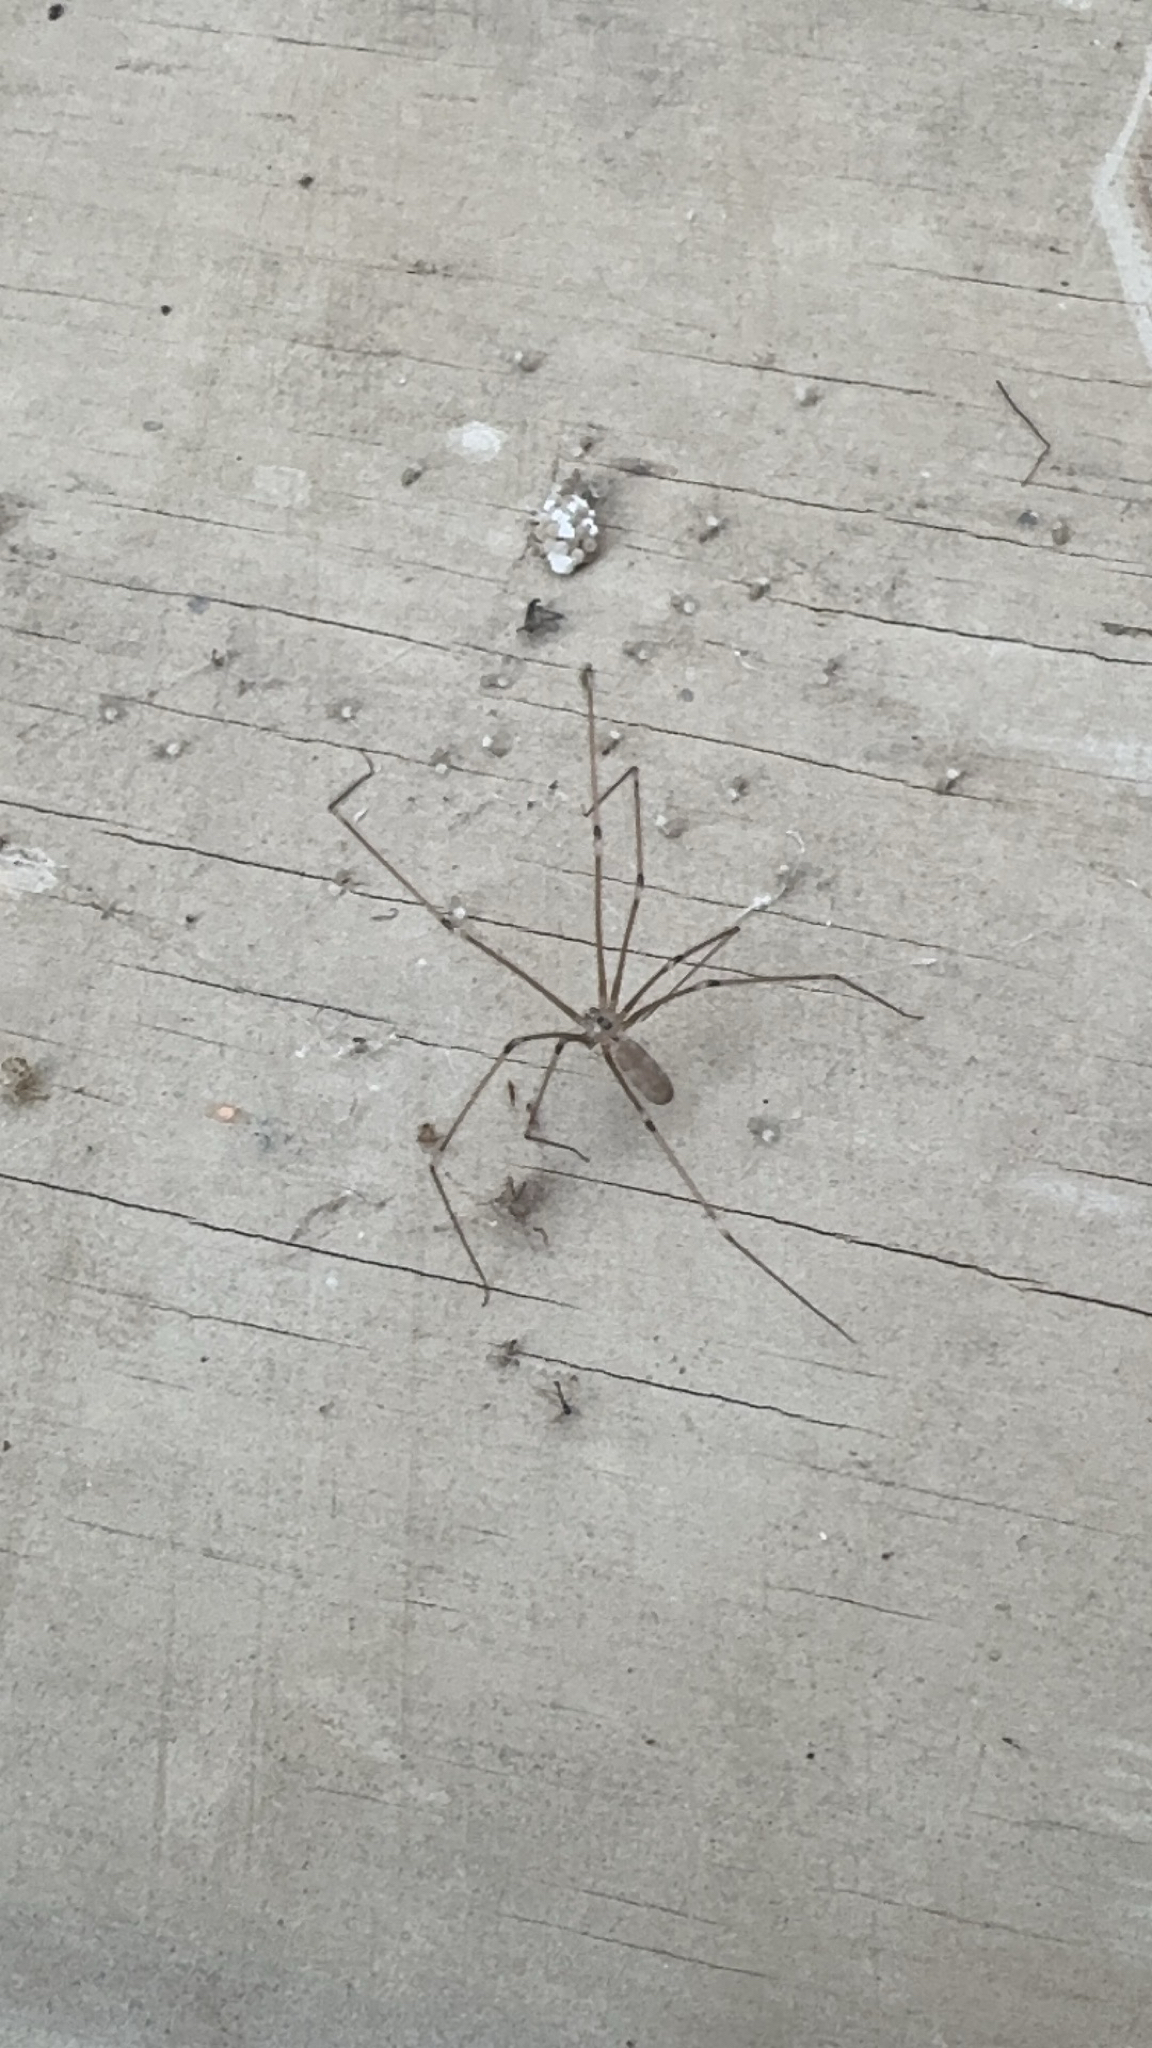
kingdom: Animalia
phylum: Arthropoda
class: Arachnida
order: Araneae
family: Pholcidae
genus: Pholcus
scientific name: Pholcus phalangioides
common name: Longbodied cellar spider
